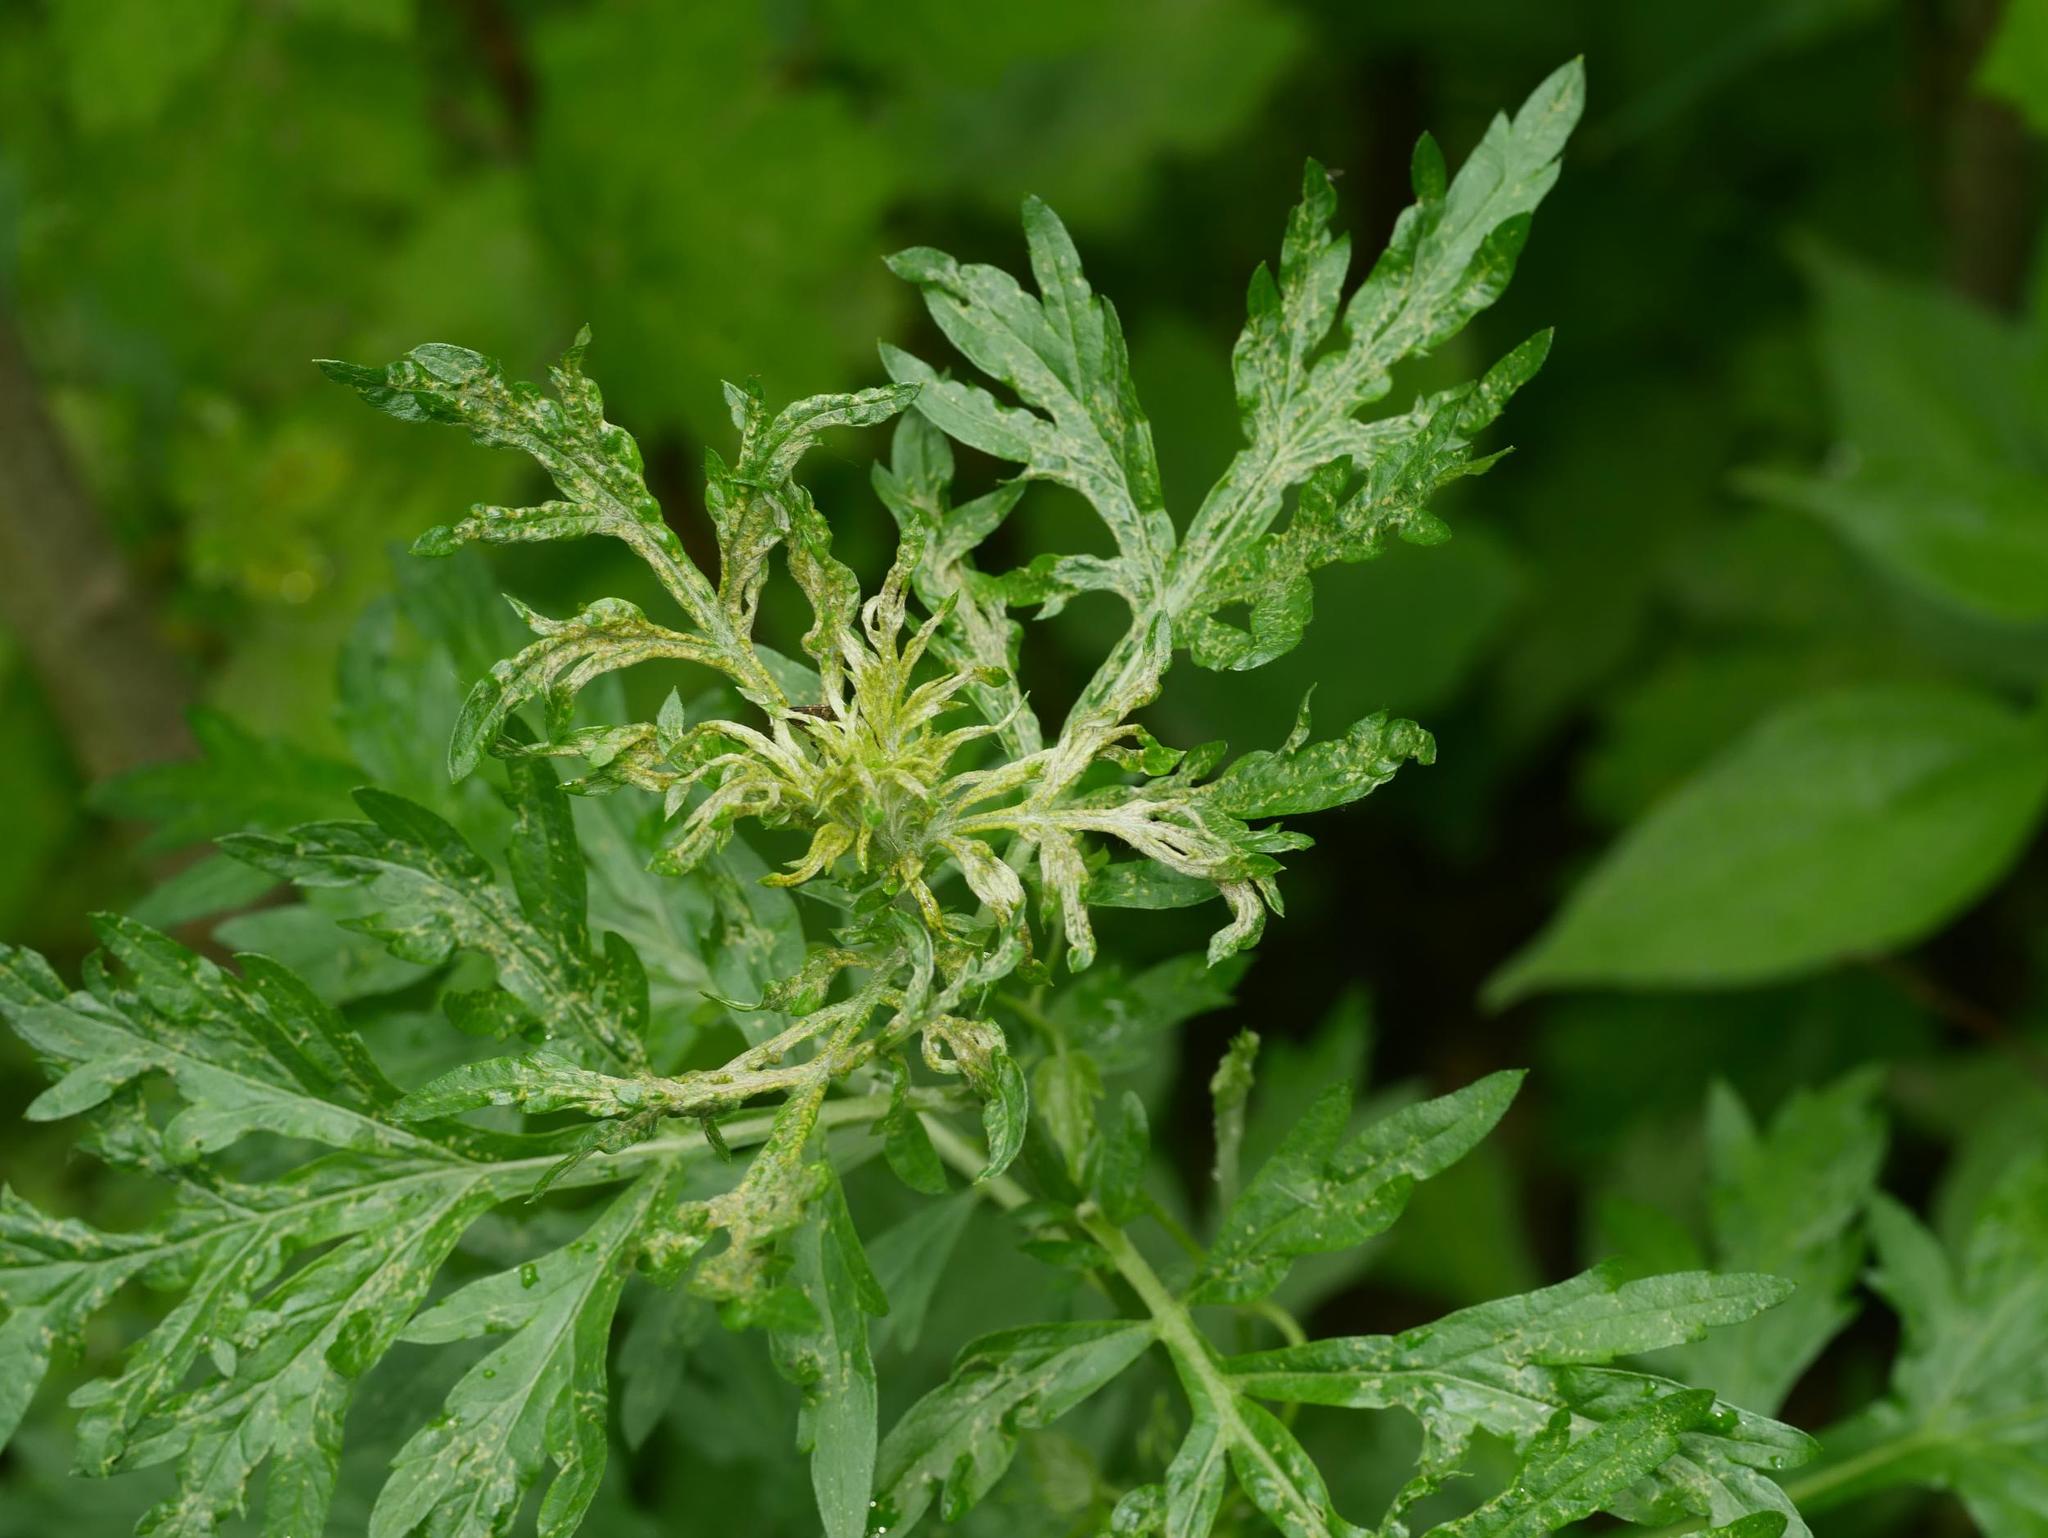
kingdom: Plantae
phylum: Tracheophyta
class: Magnoliopsida
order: Asterales
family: Asteraceae
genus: Artemisia
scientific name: Artemisia vulgaris
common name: Mugwort
